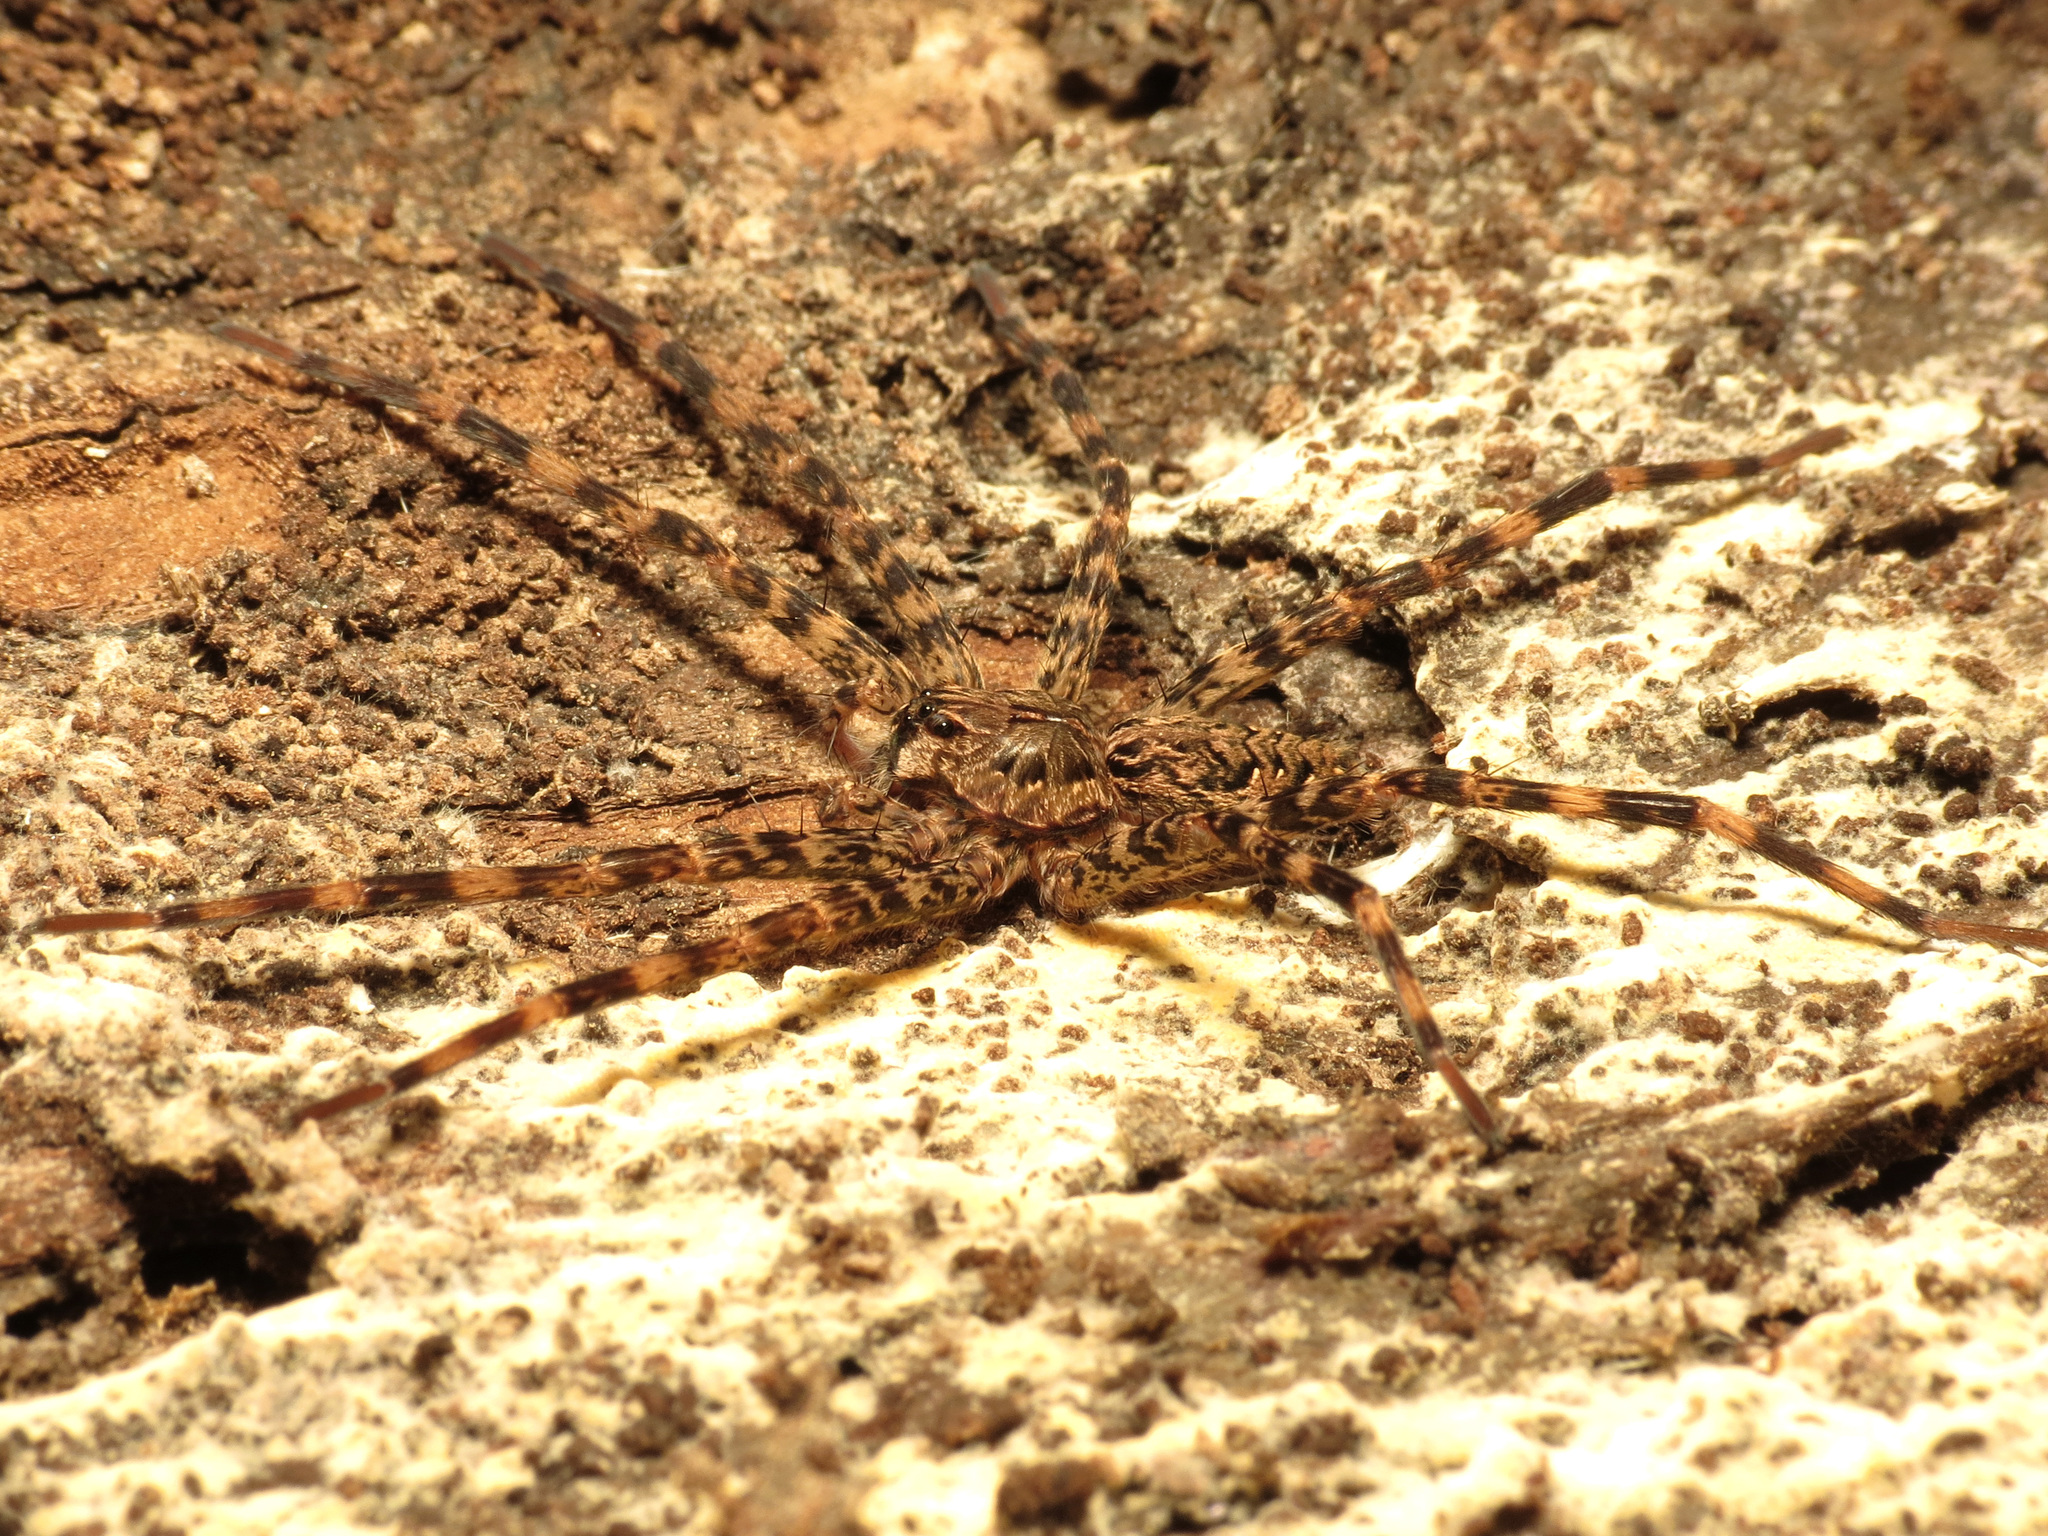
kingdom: Animalia
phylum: Arthropoda
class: Arachnida
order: Araneae
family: Pisauridae
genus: Dolomedes
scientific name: Dolomedes tenebrosus
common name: Dark fishing spider
